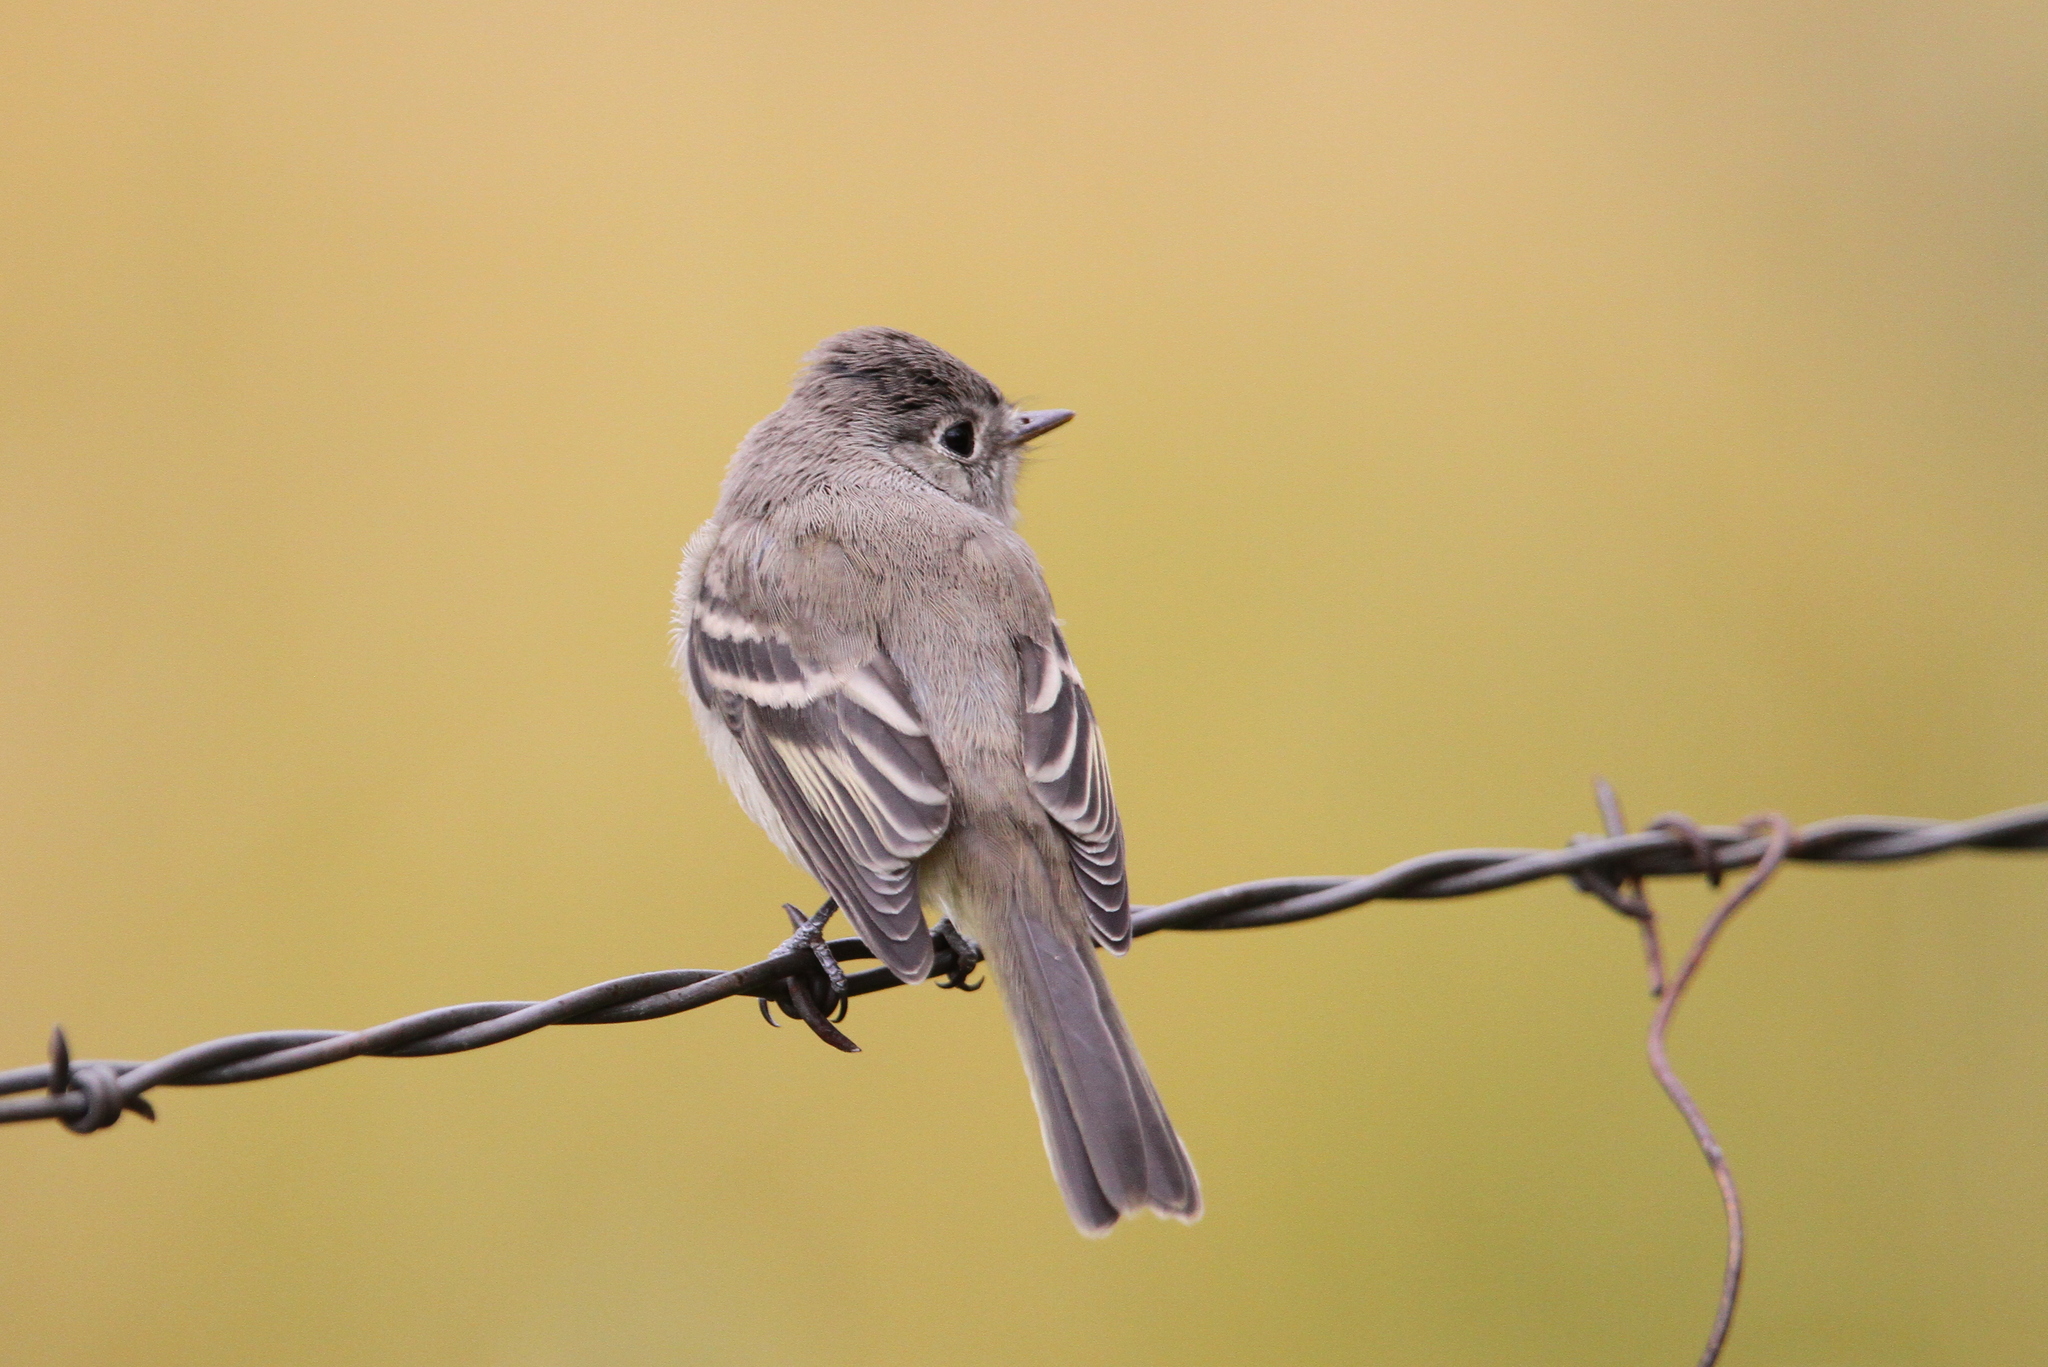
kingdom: Animalia
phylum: Chordata
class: Aves
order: Passeriformes
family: Tyrannidae
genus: Empidonax
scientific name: Empidonax traillii
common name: Willow flycatcher
